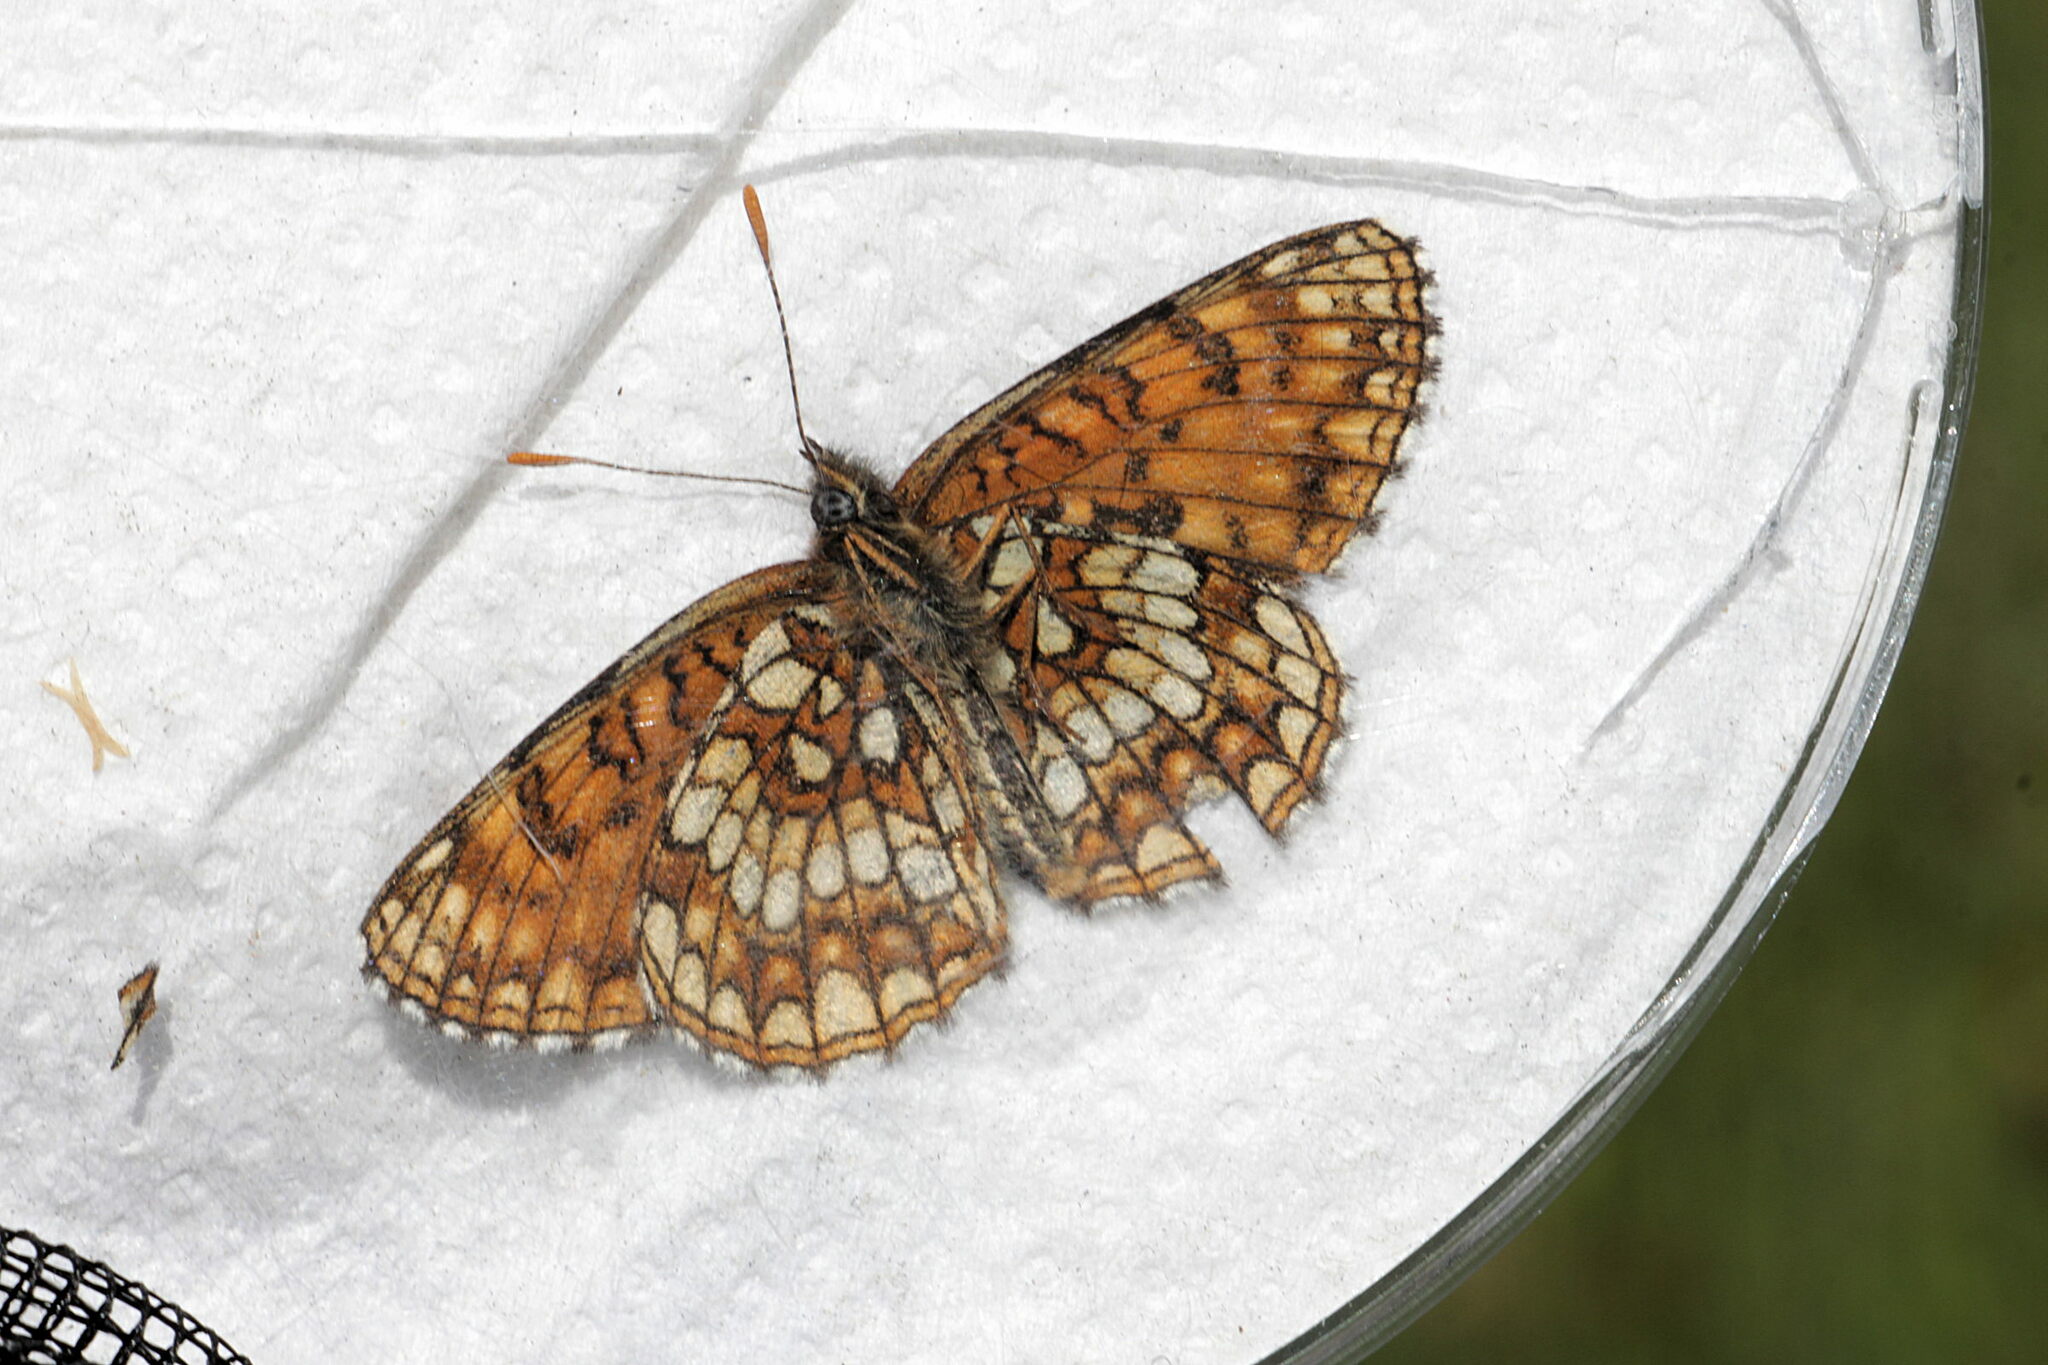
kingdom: Animalia
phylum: Arthropoda
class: Insecta
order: Lepidoptera
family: Nymphalidae
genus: Melitaea
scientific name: Melitaea diamina
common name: False heath fritillary
